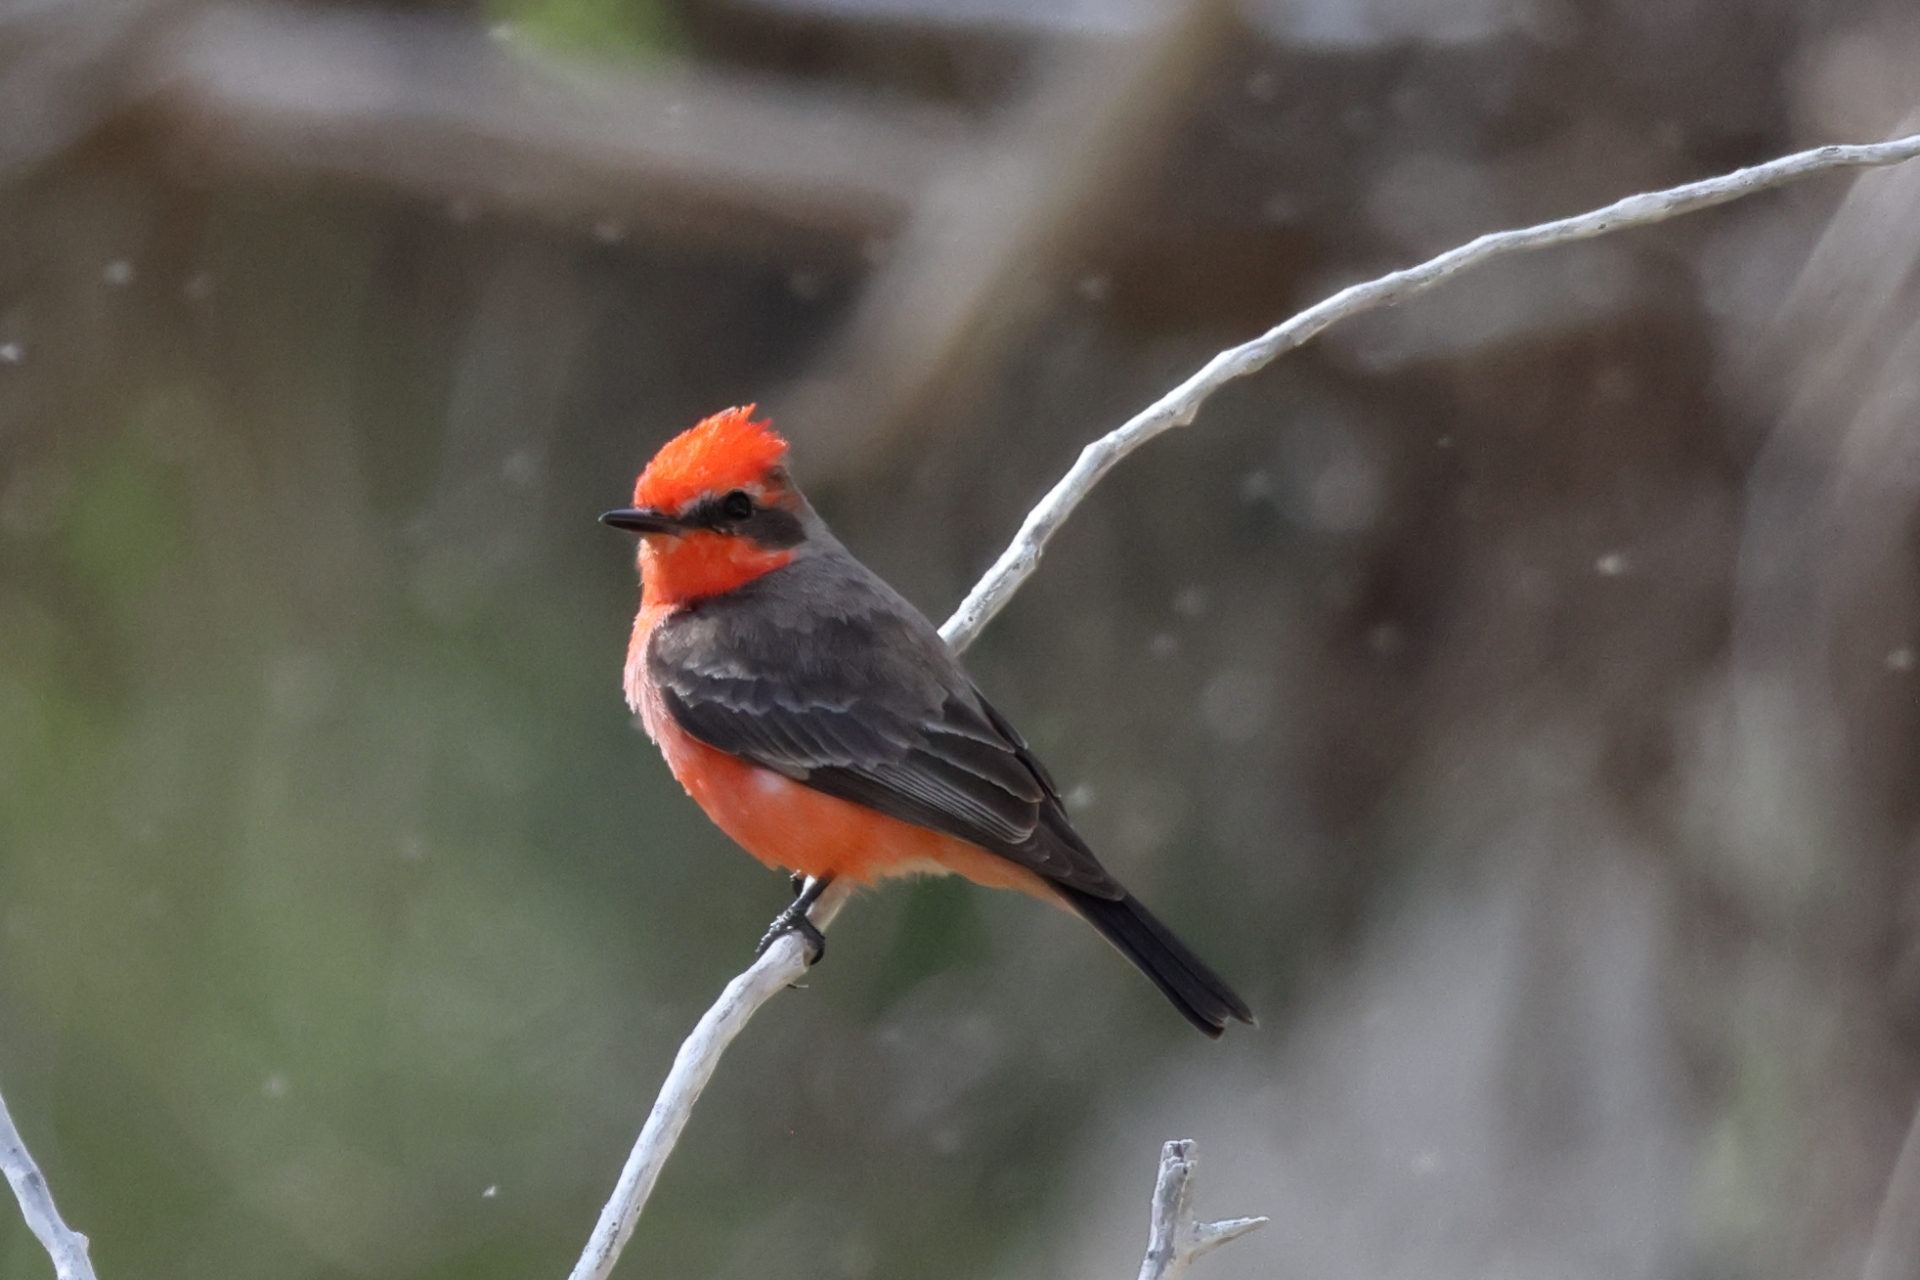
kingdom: Animalia
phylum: Chordata
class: Aves
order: Passeriformes
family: Tyrannidae
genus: Pyrocephalus
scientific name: Pyrocephalus rubinus
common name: Vermilion flycatcher
